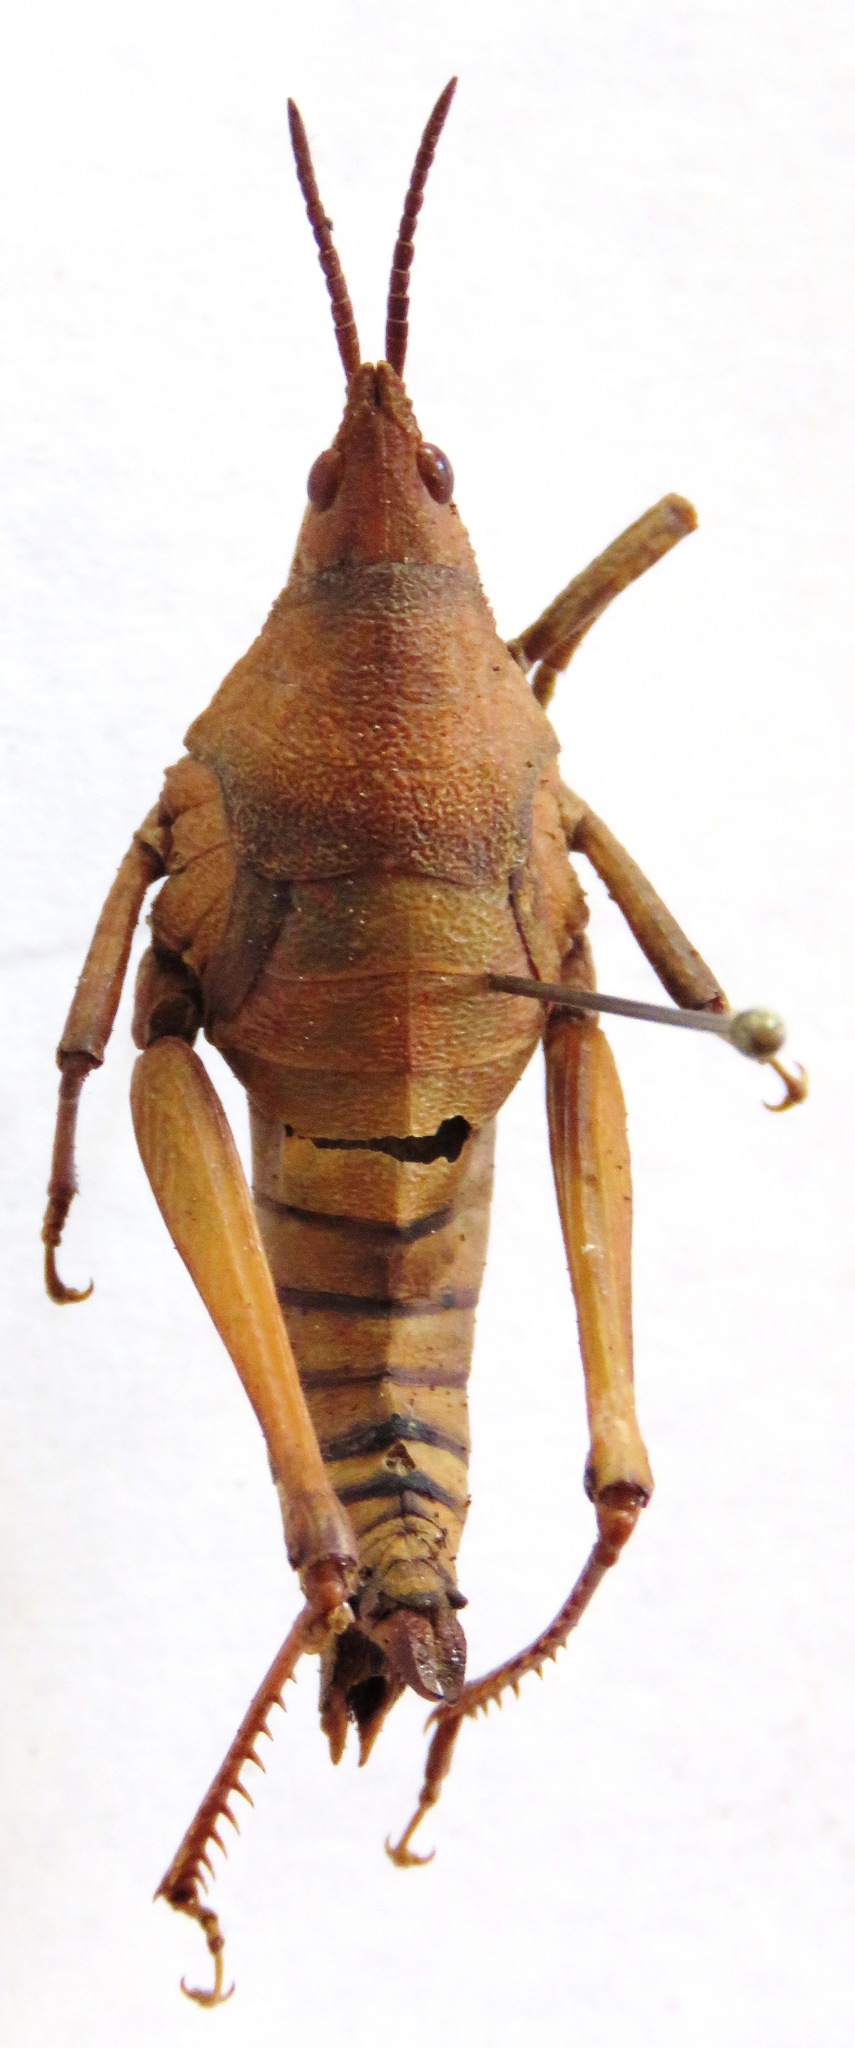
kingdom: Animalia
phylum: Arthropoda
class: Insecta
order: Orthoptera
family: Pyrgomorphidae
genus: Prosphena
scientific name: Prosphena scudderi
